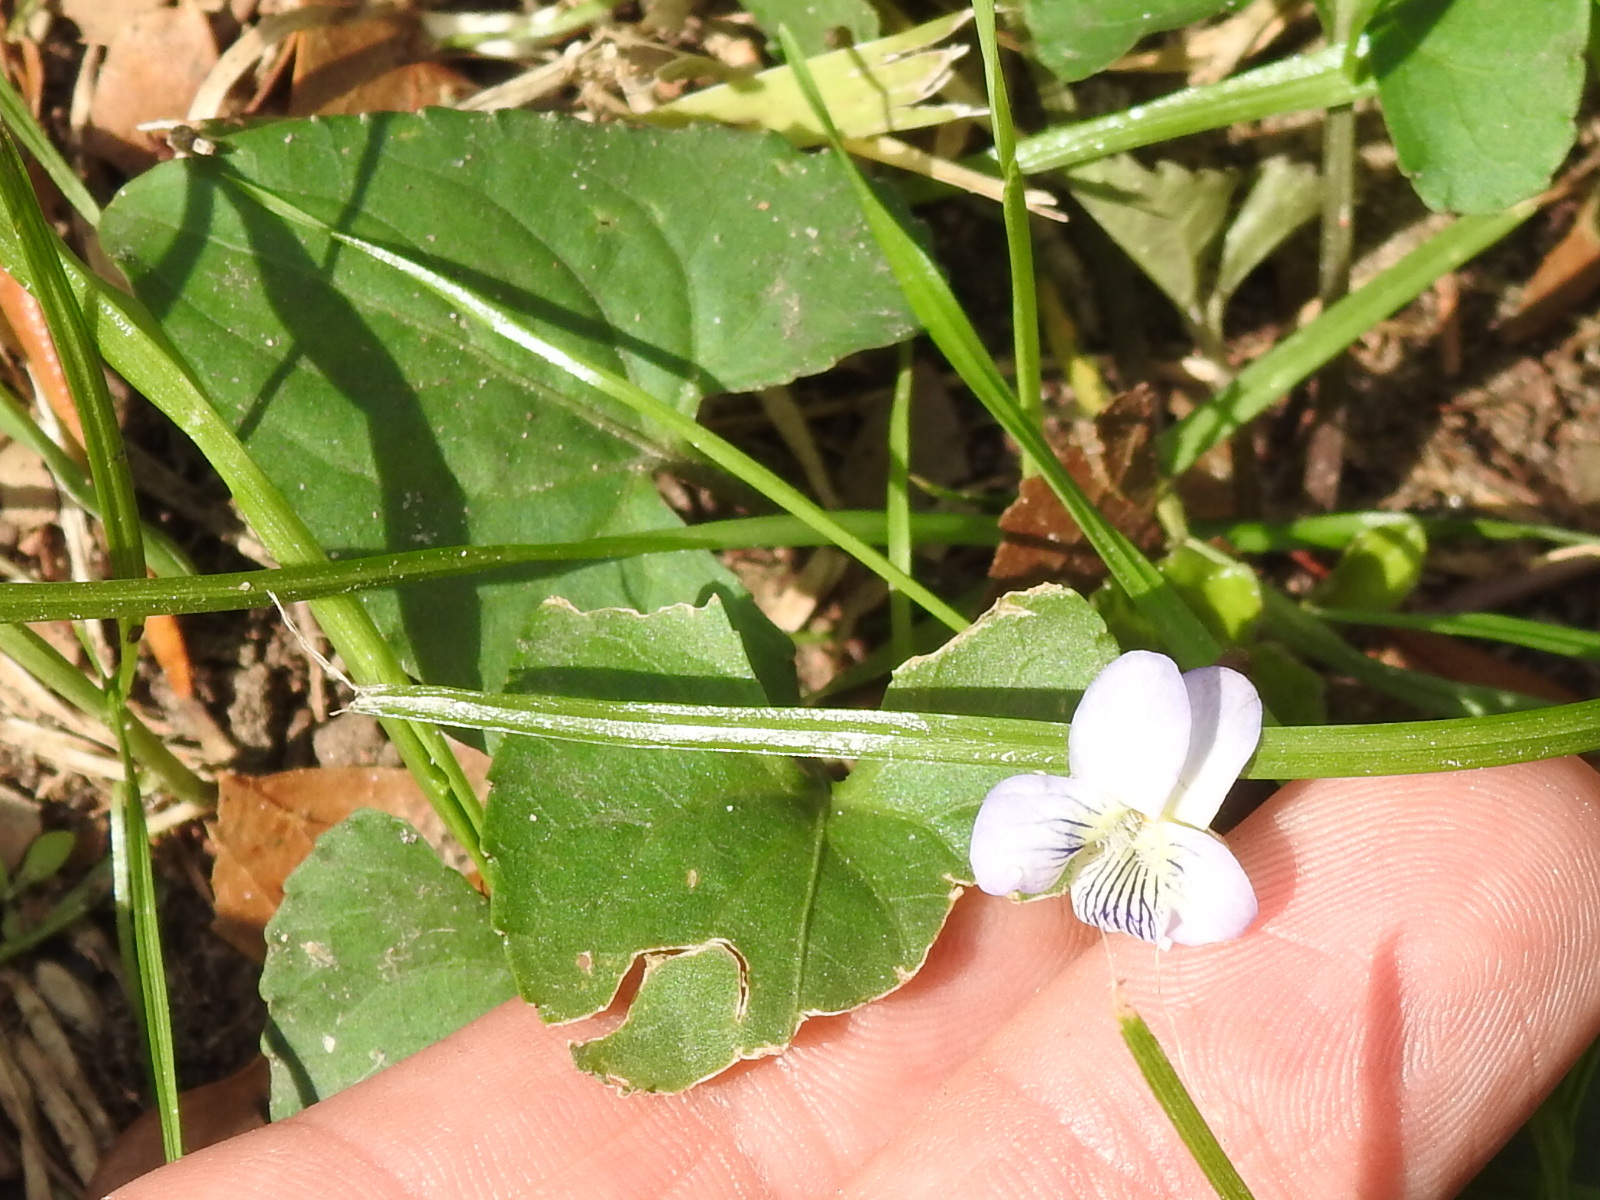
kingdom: Plantae
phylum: Tracheophyta
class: Magnoliopsida
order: Malpighiales
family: Violaceae
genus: Viola
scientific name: Viola missouriensis
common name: Missouri violet
